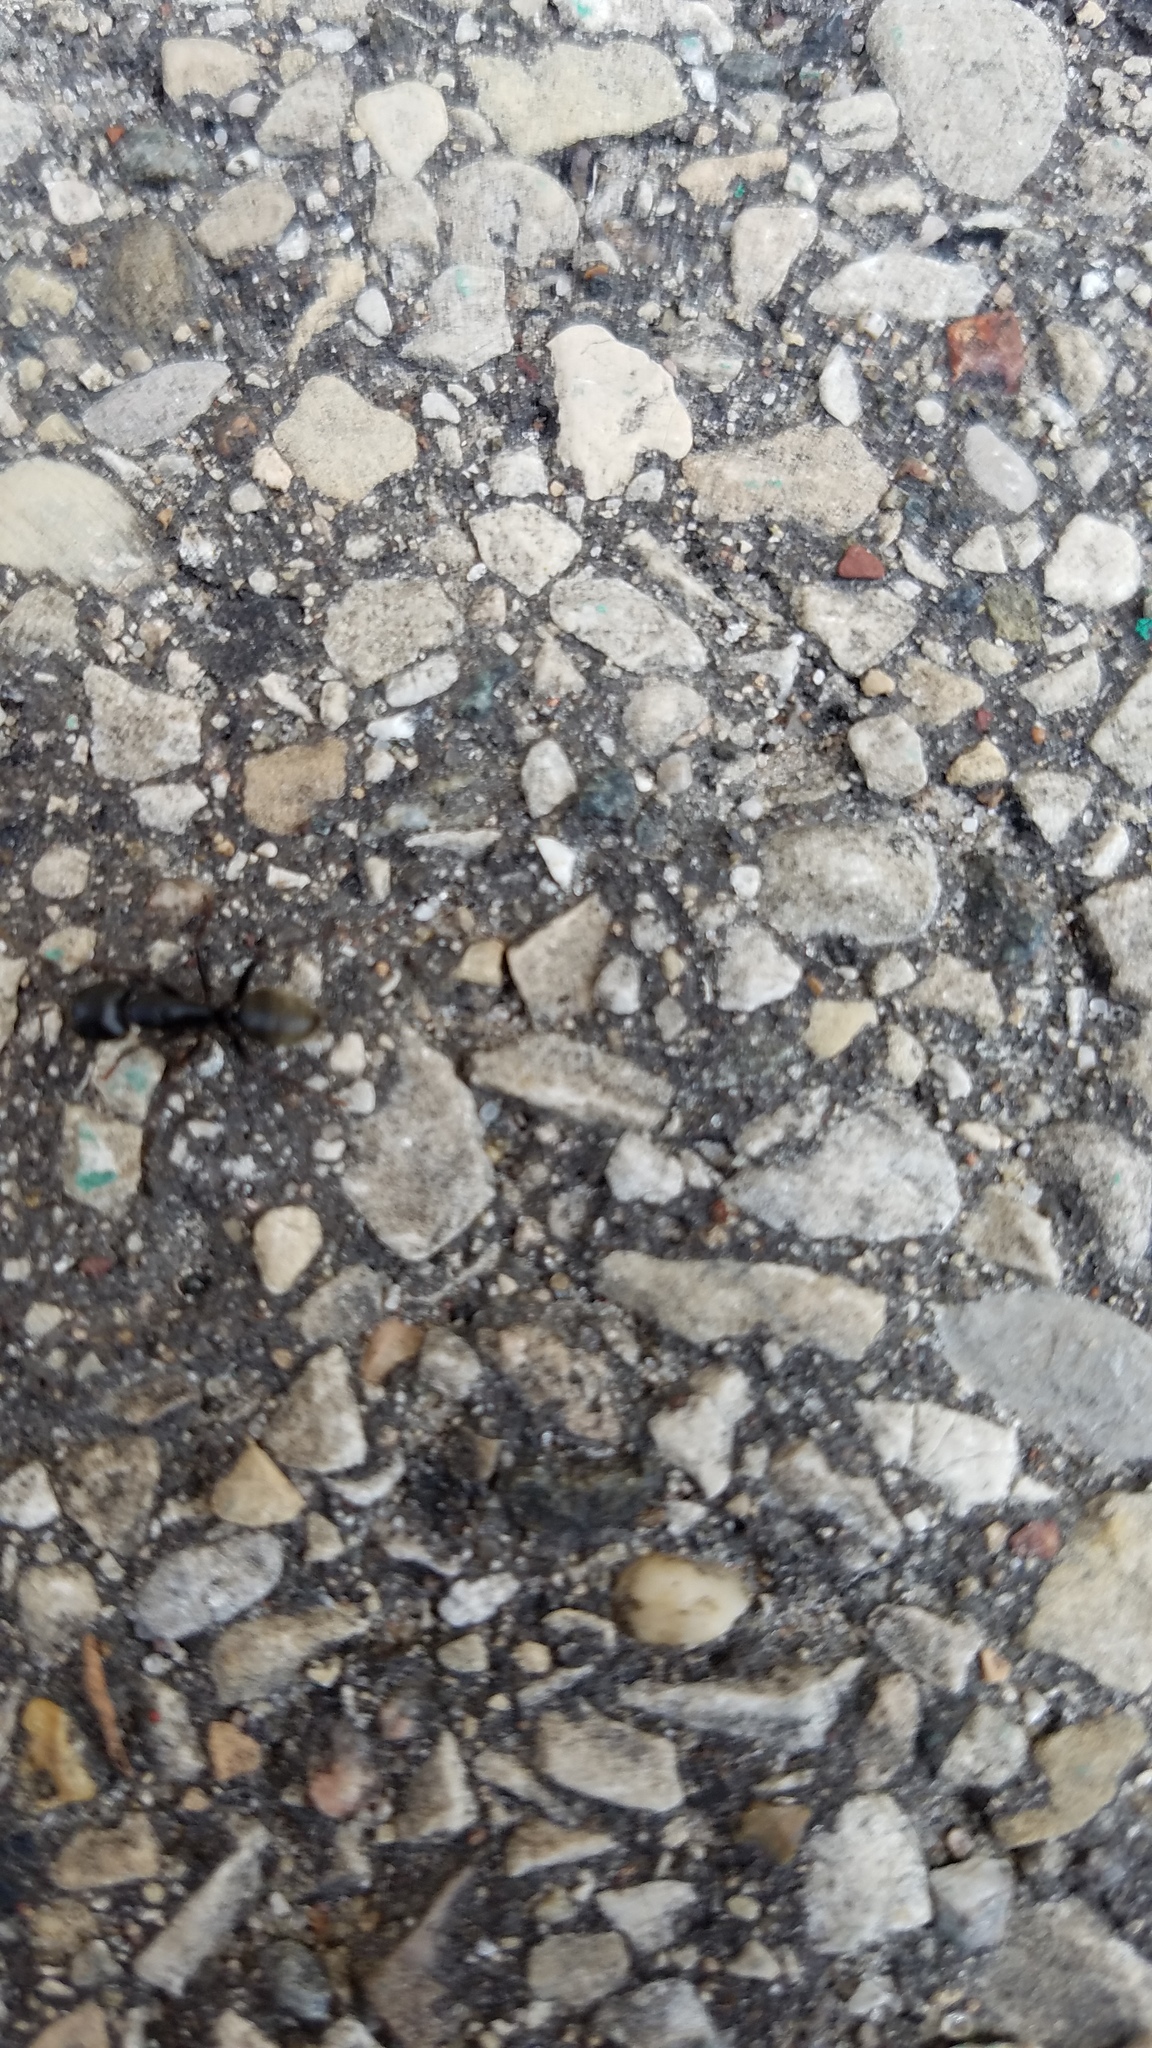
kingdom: Animalia
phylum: Arthropoda
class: Insecta
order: Hymenoptera
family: Formicidae
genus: Camponotus
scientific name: Camponotus pennsylvanicus
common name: Black carpenter ant
